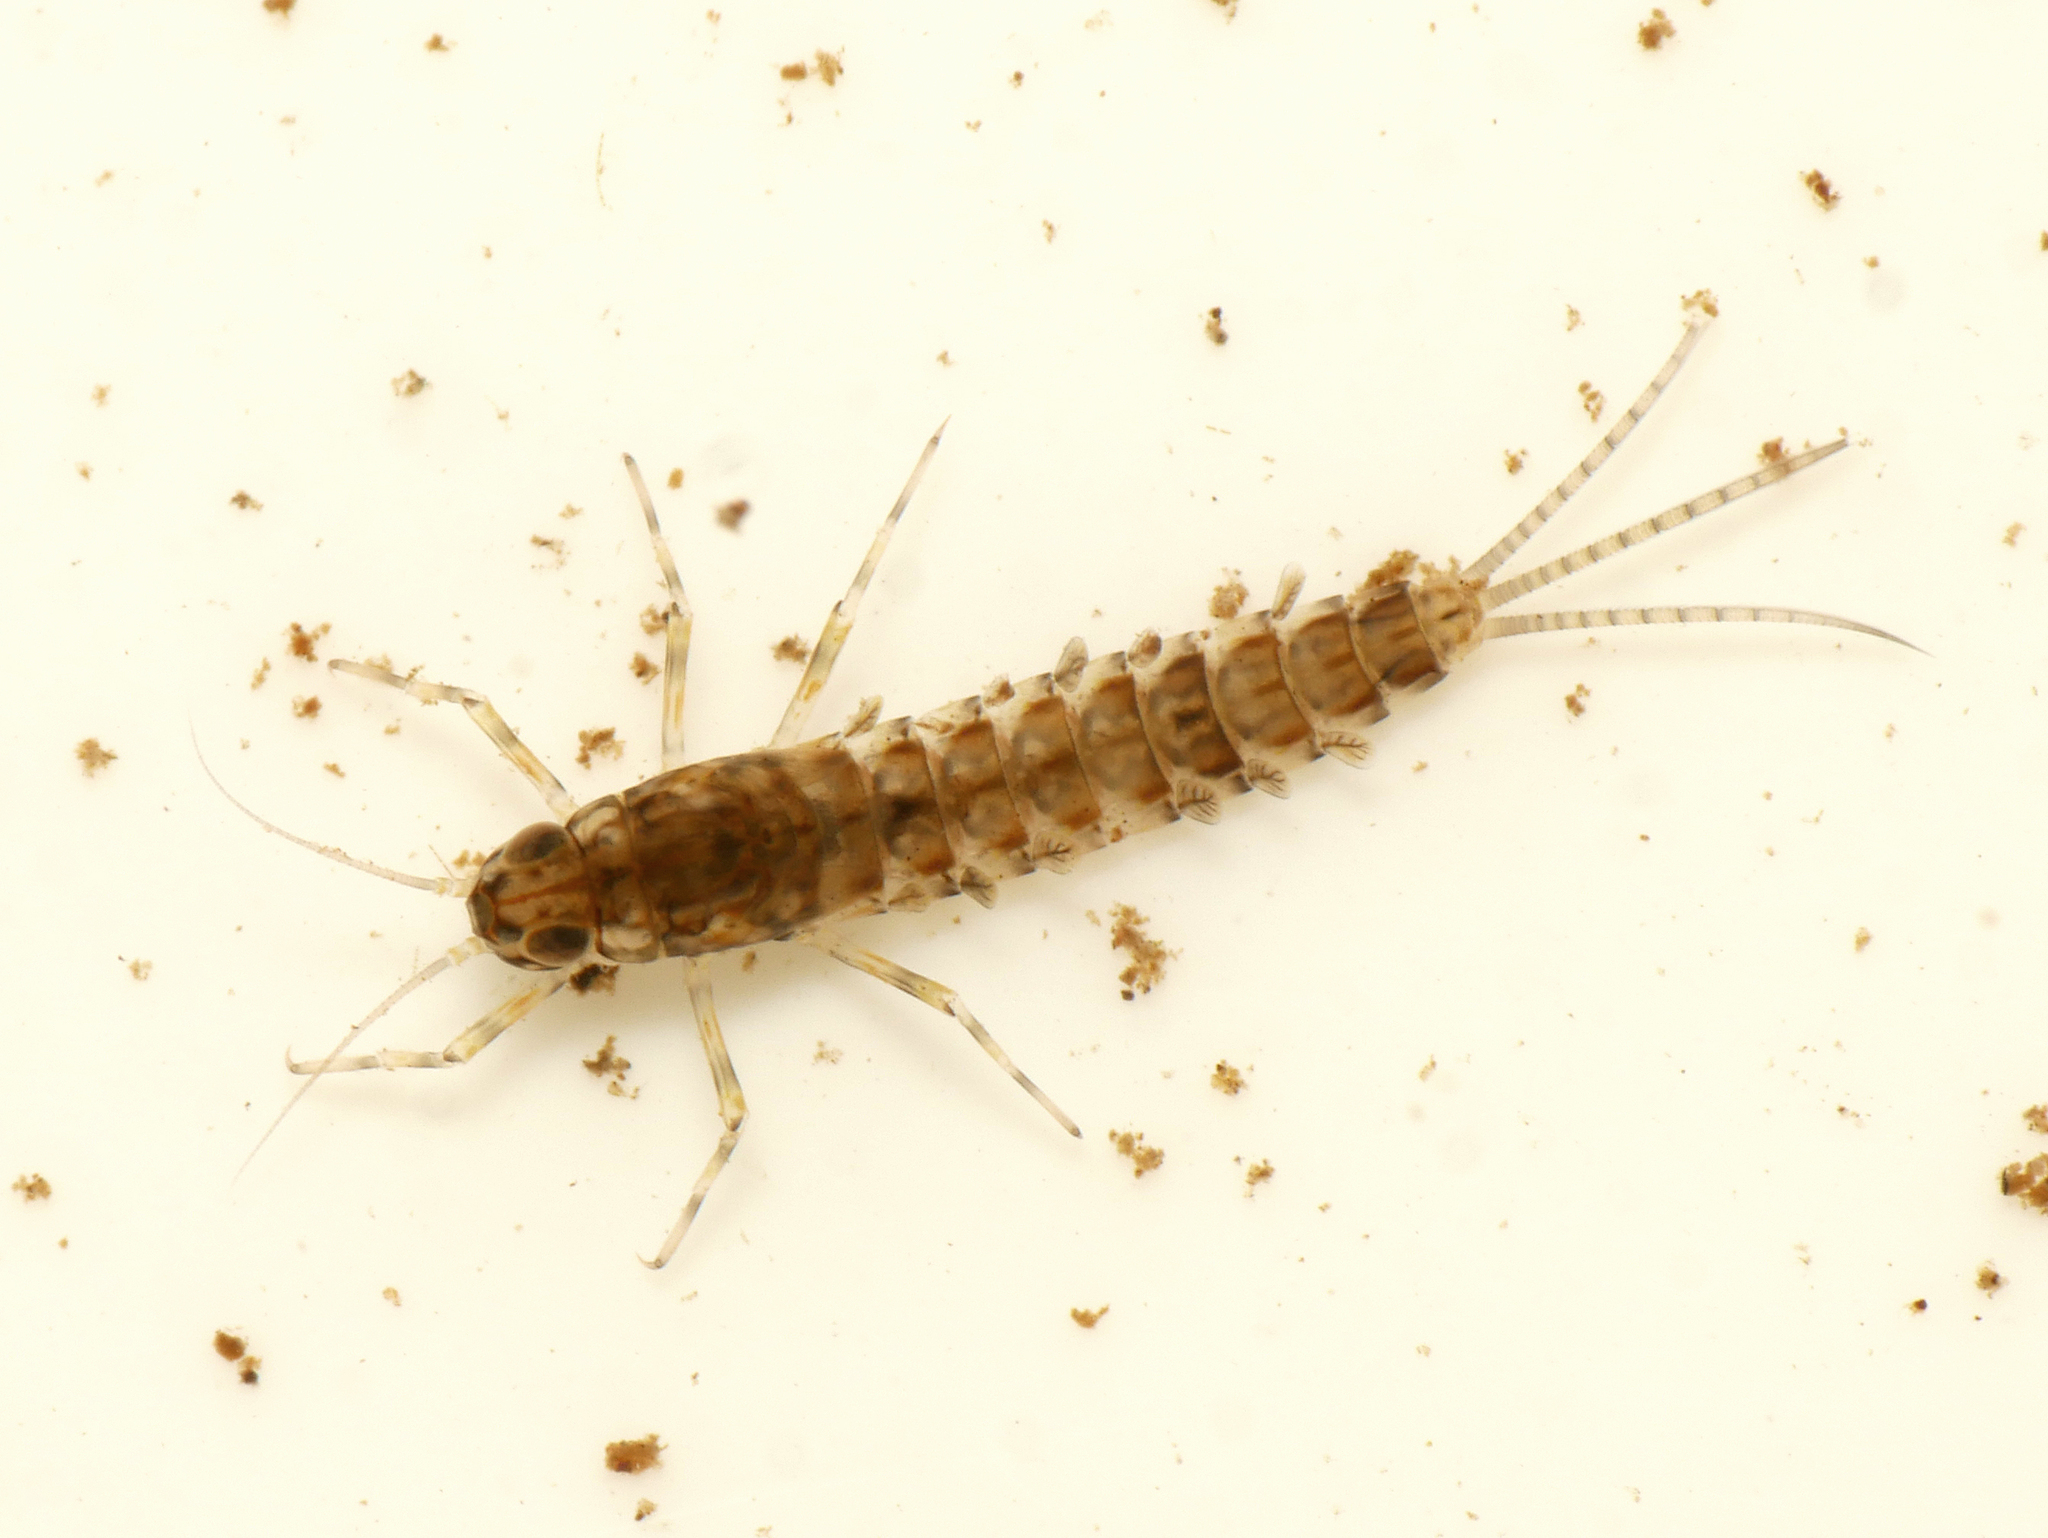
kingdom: Animalia
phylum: Arthropoda
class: Insecta
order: Ephemeroptera
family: Baetidae
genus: Centroptilum
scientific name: Centroptilum luteolum
